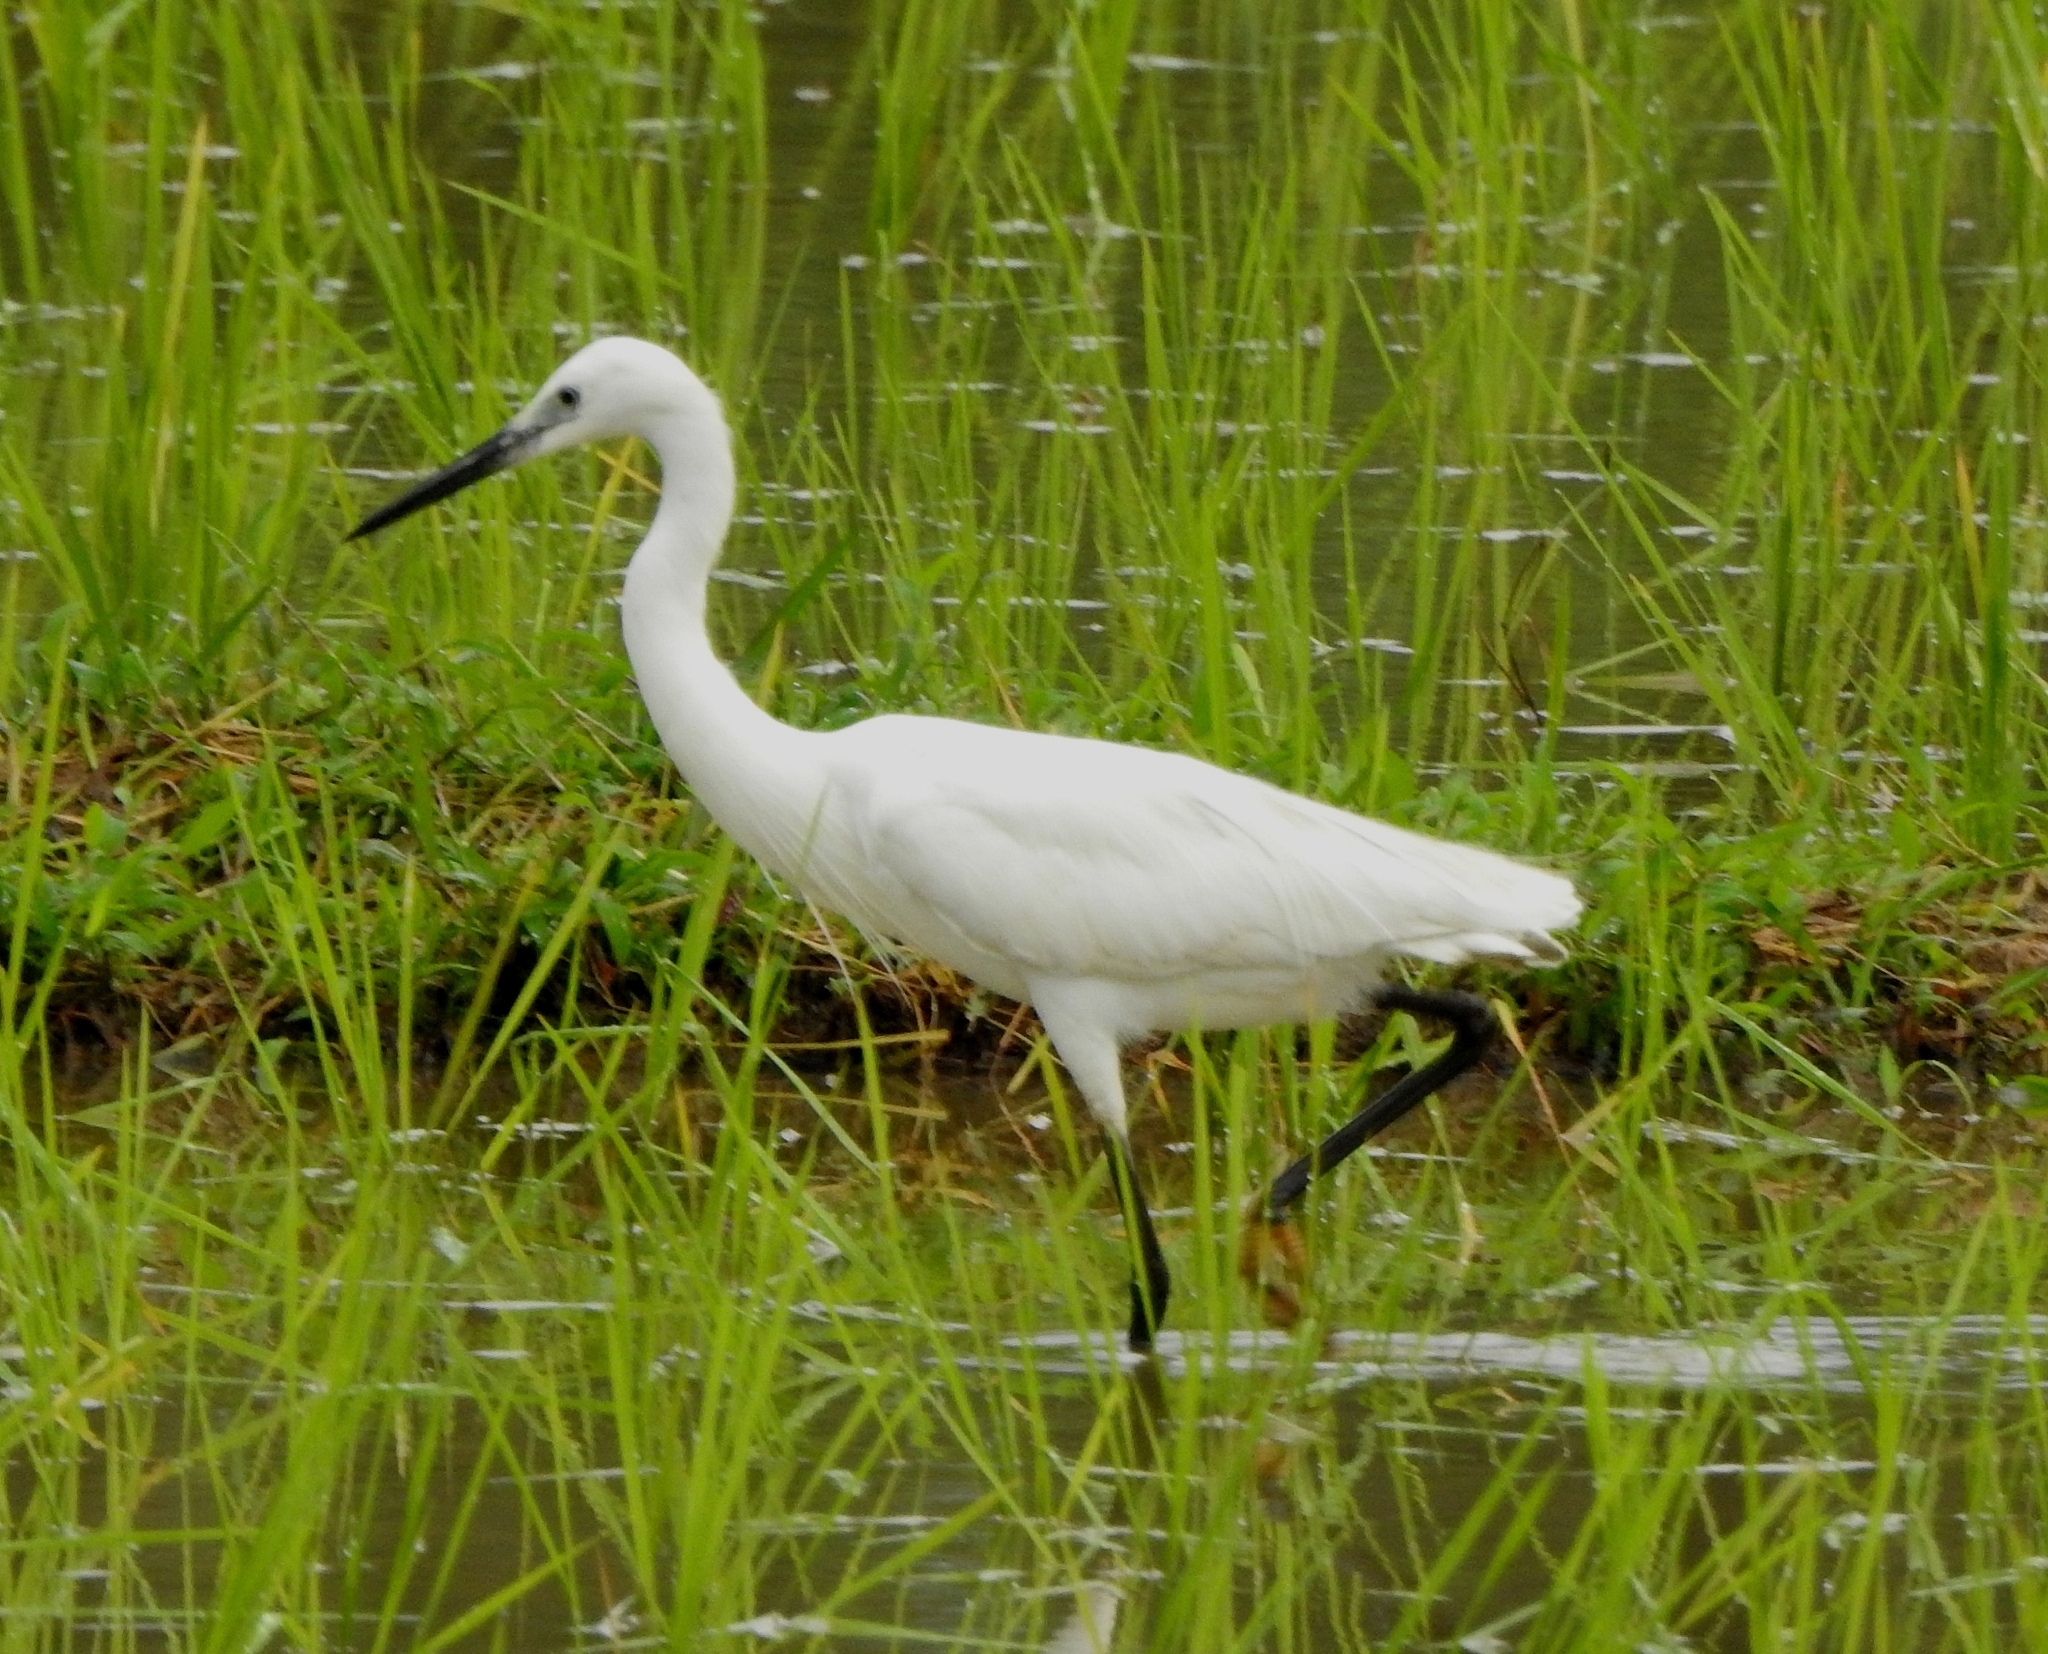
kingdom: Animalia
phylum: Chordata
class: Aves
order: Pelecaniformes
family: Ardeidae
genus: Egretta
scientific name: Egretta garzetta
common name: Little egret
